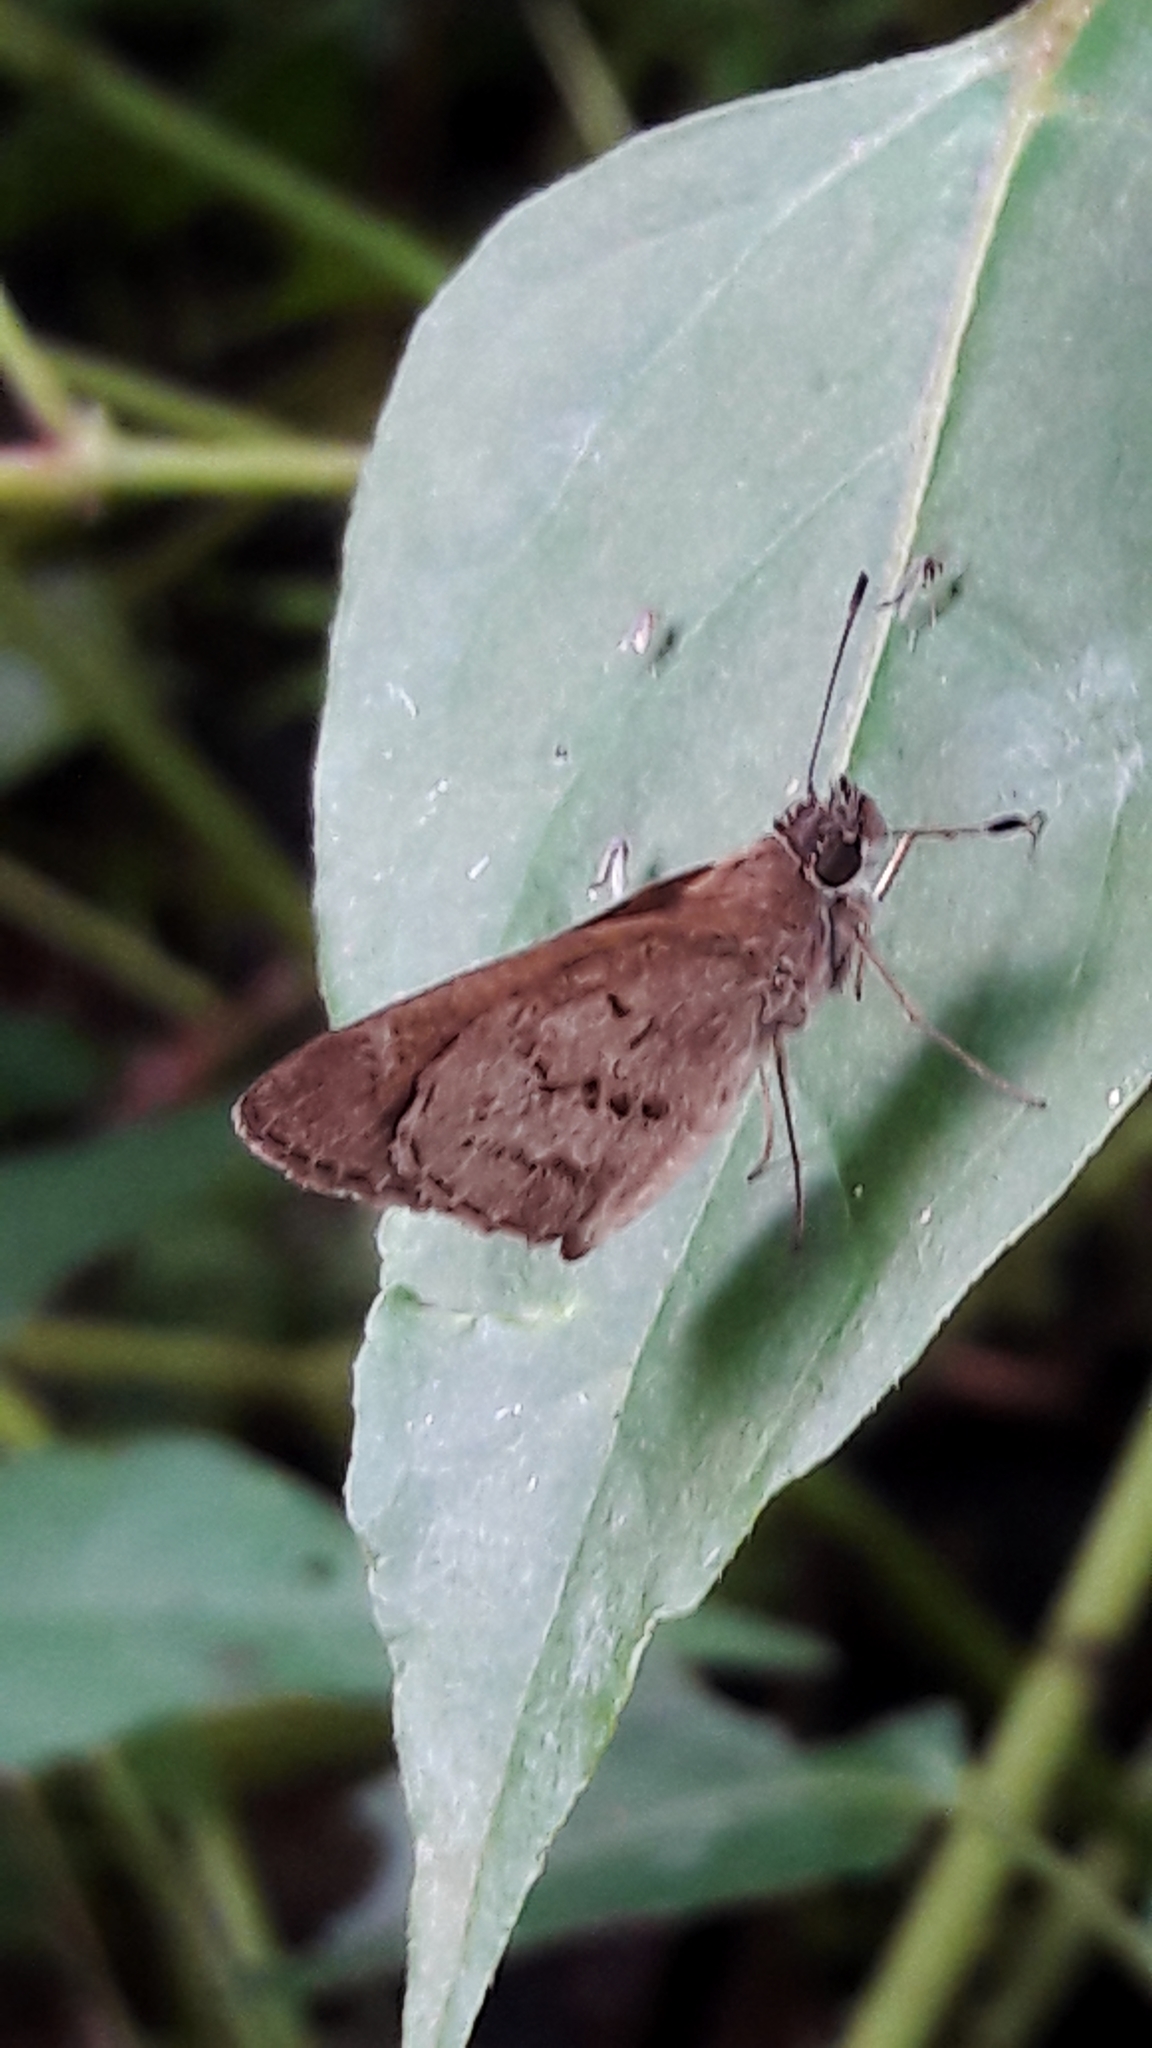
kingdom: Animalia
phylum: Arthropoda
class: Insecta
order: Lepidoptera
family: Hesperiidae
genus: Cymaenes
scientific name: Cymaenes gisca
